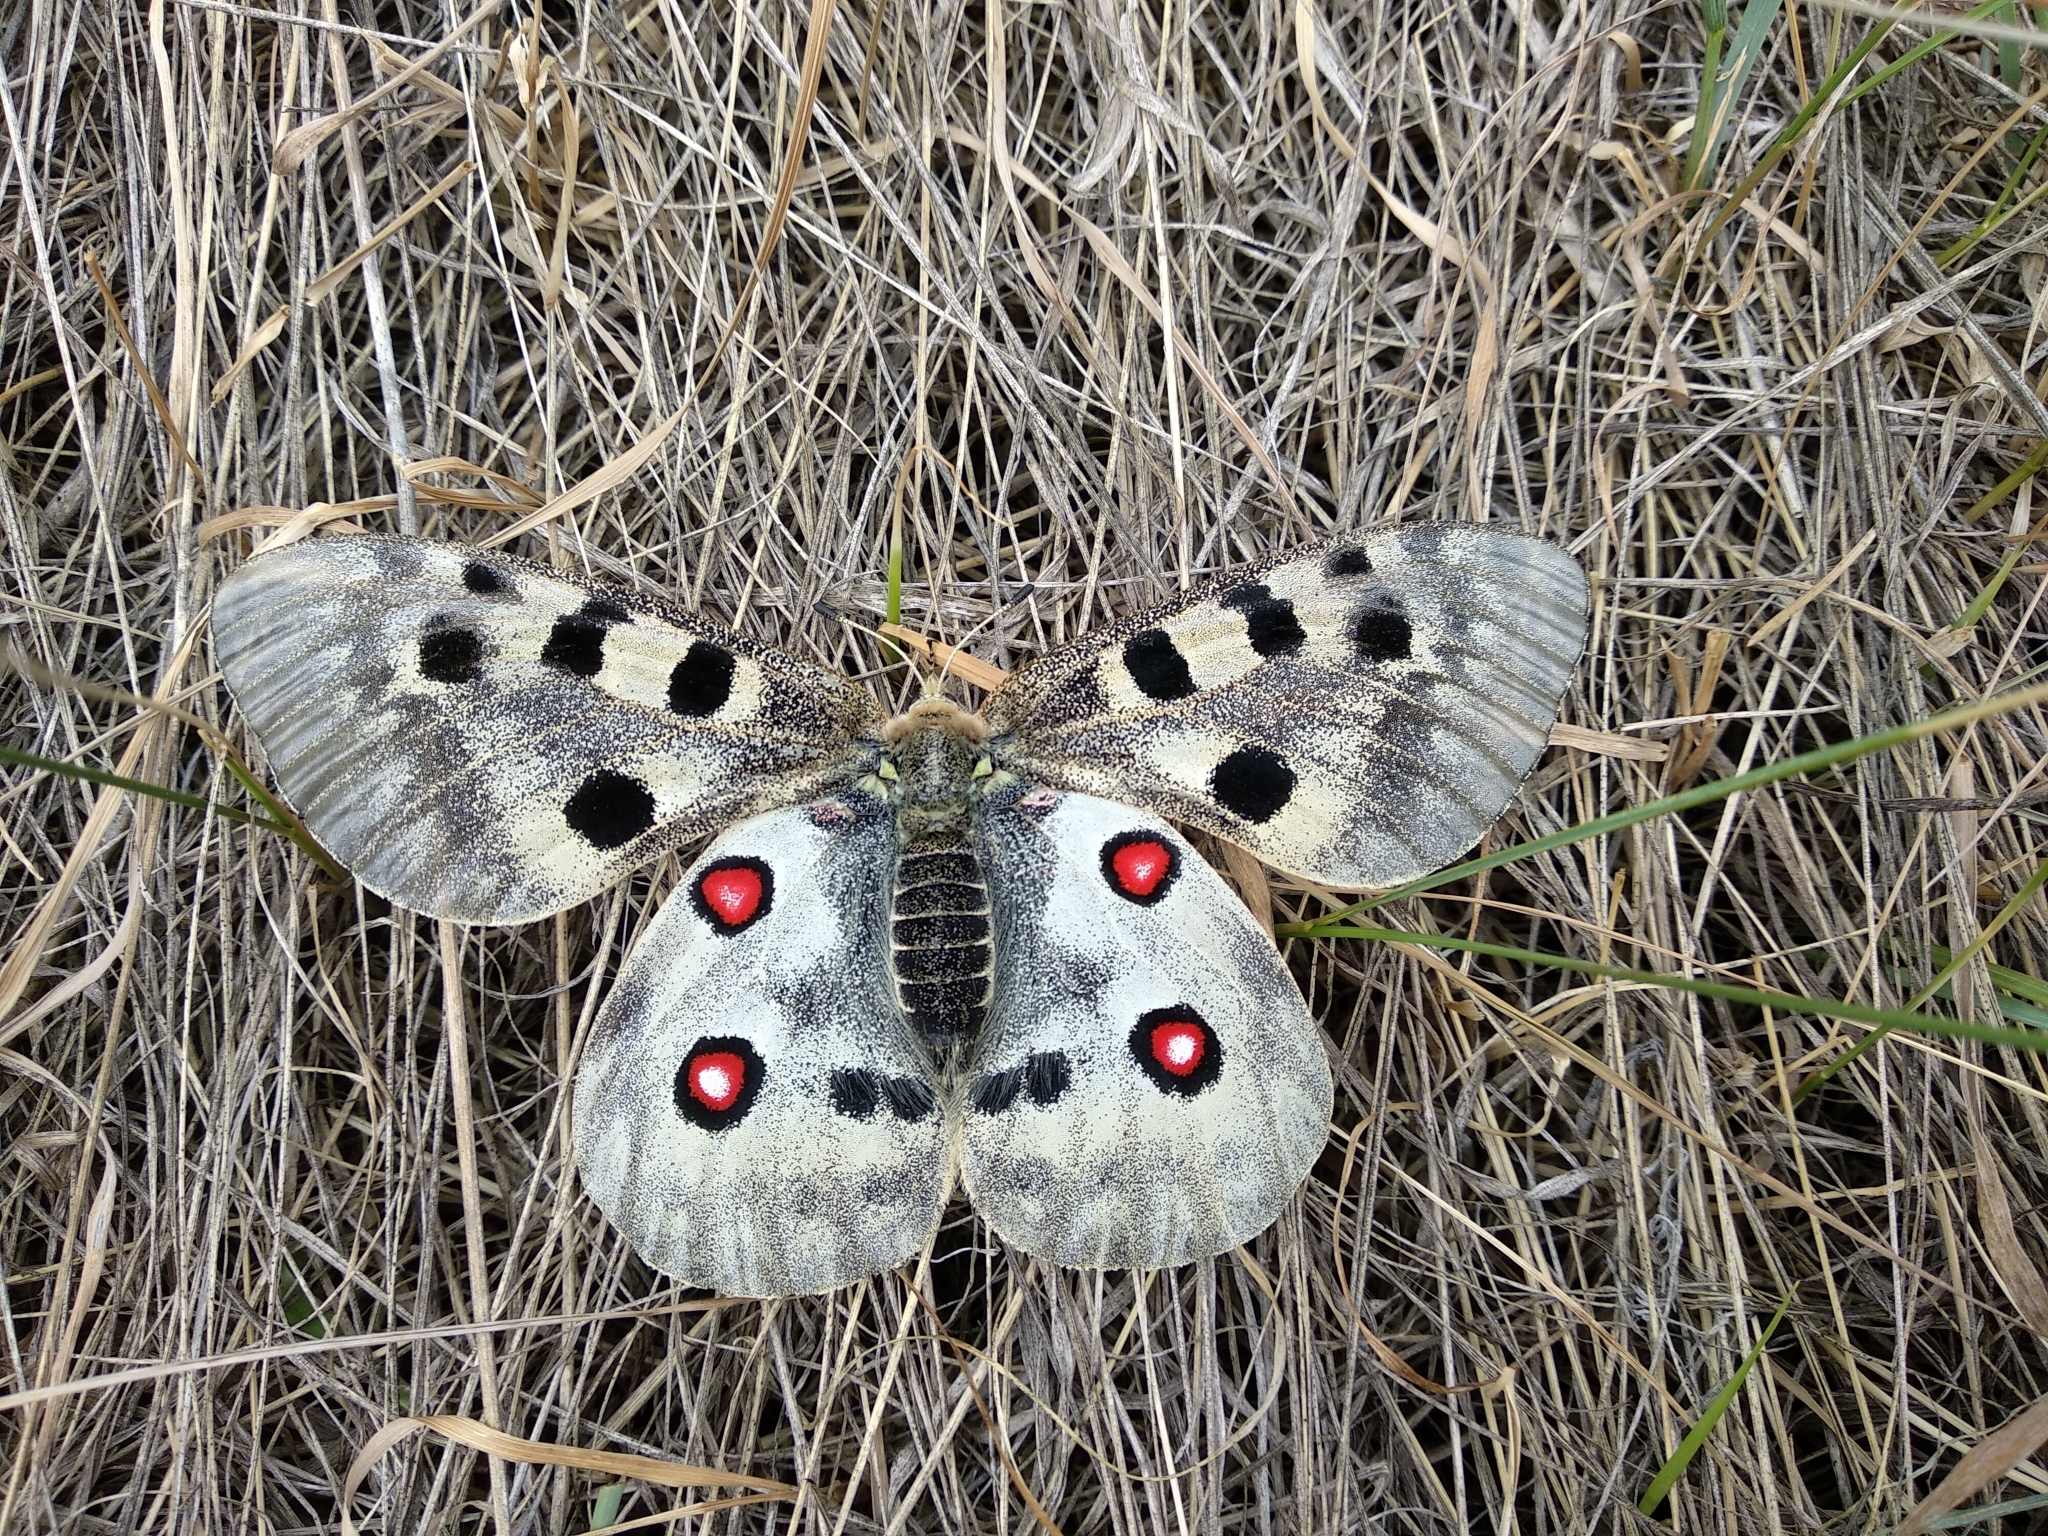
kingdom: Animalia
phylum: Arthropoda
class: Insecta
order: Lepidoptera
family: Papilionidae
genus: Parnassius
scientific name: Parnassius apollo
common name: Apollo
